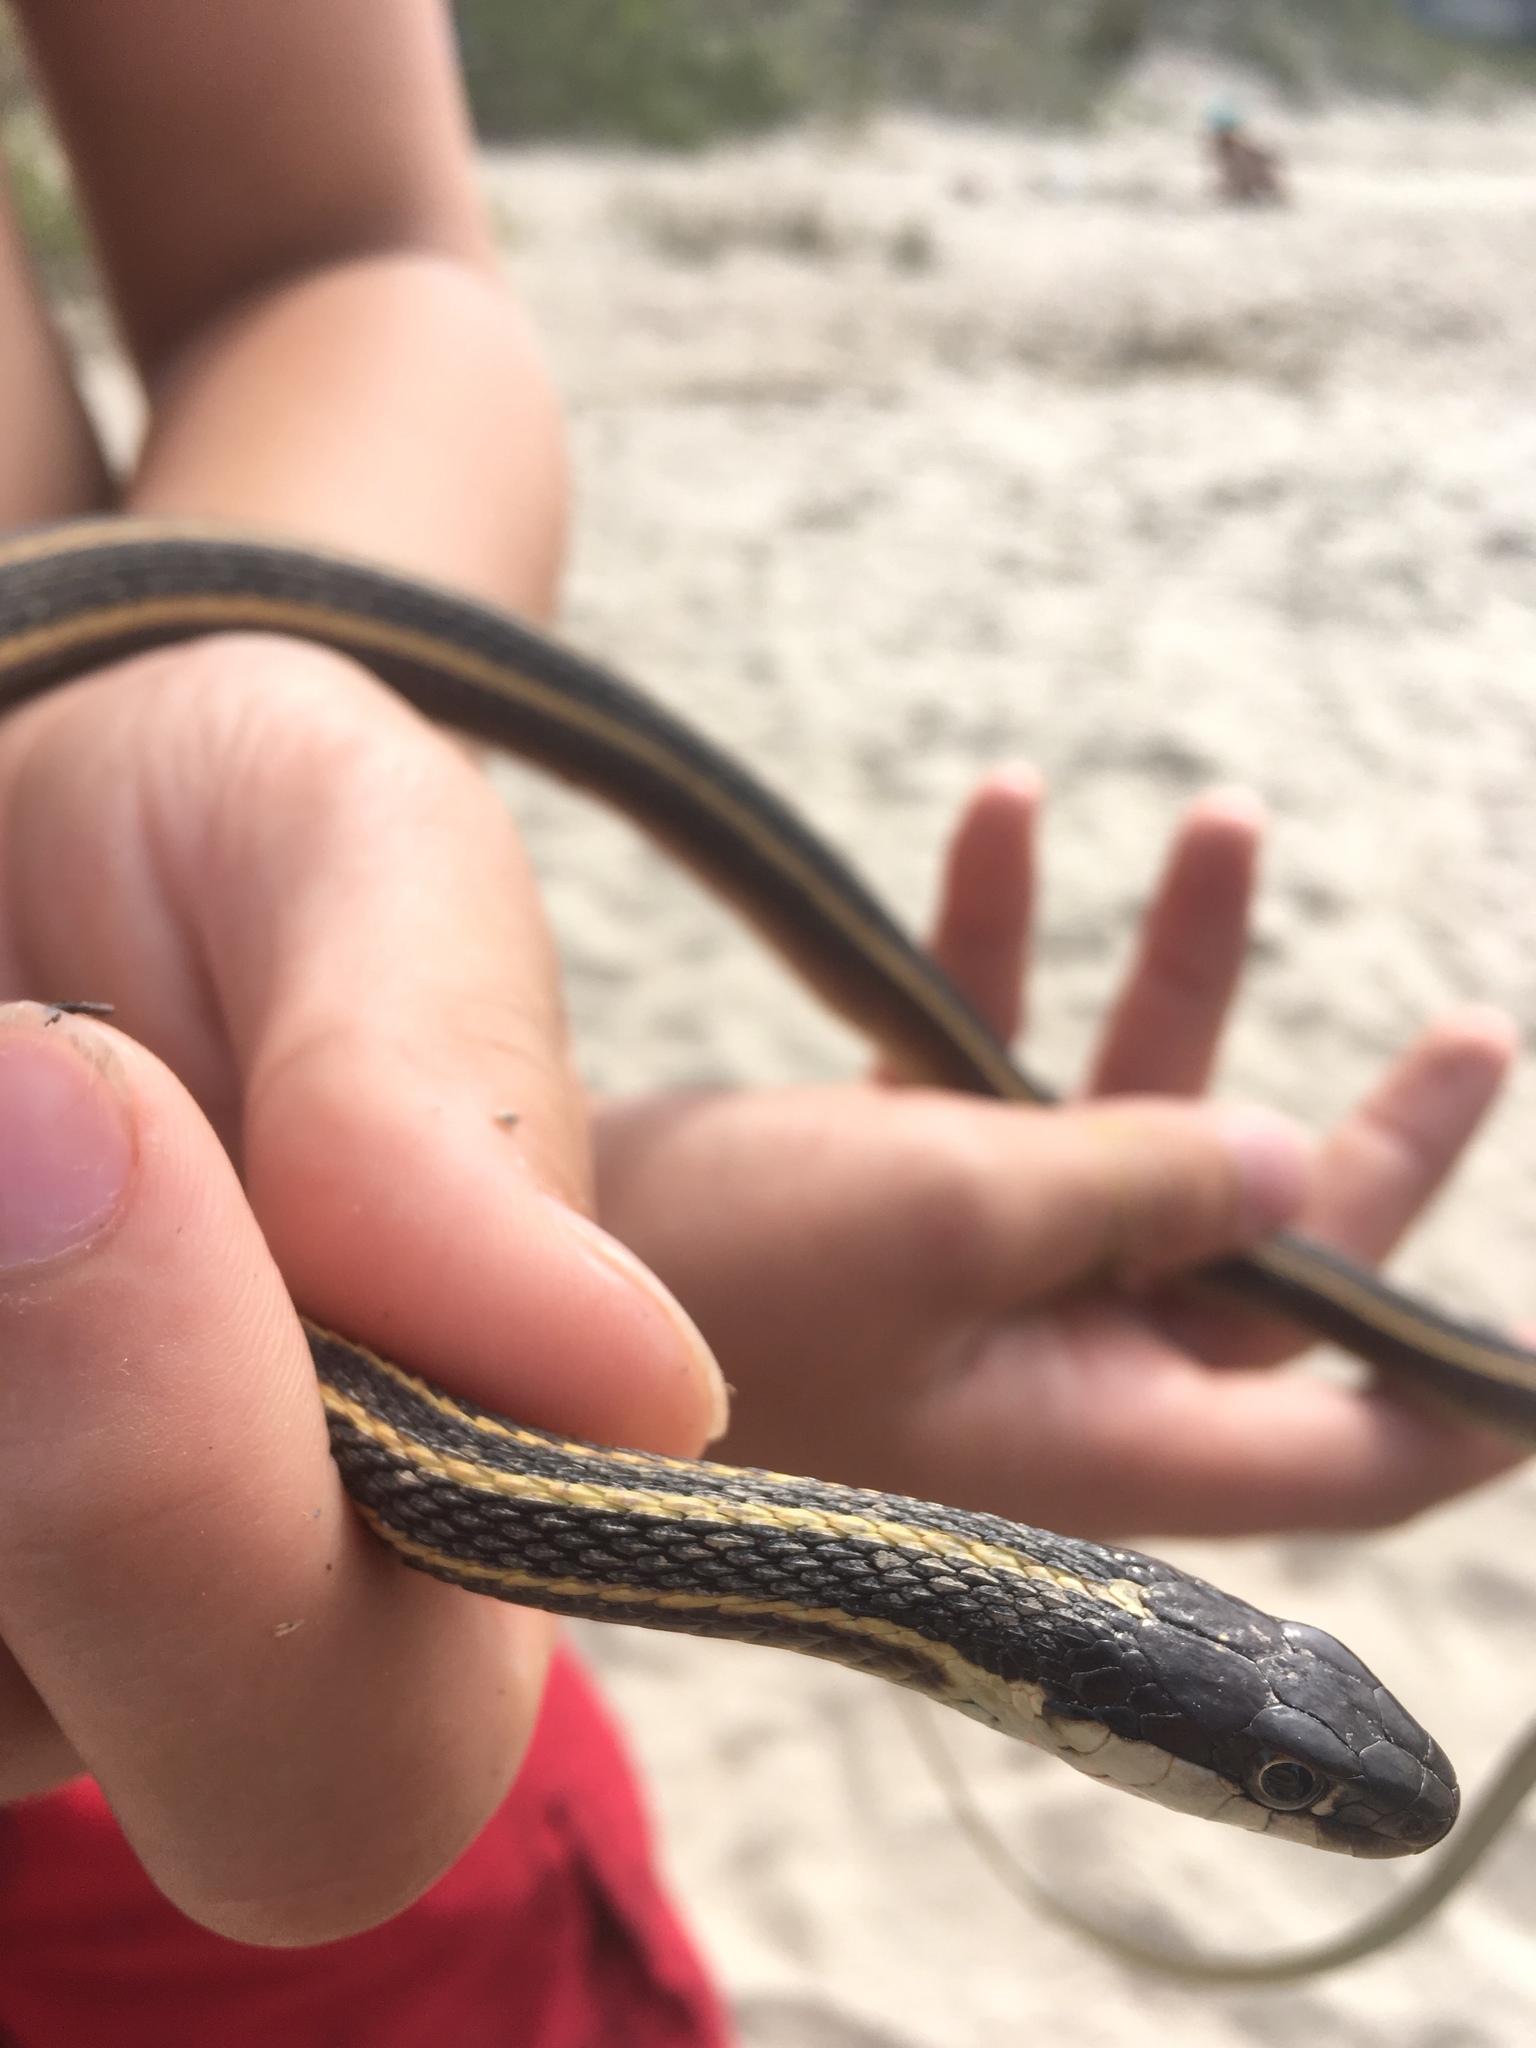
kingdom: Animalia
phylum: Chordata
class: Squamata
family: Colubridae
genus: Thamnophis
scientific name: Thamnophis saurita
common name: Eastern ribbonsnake
